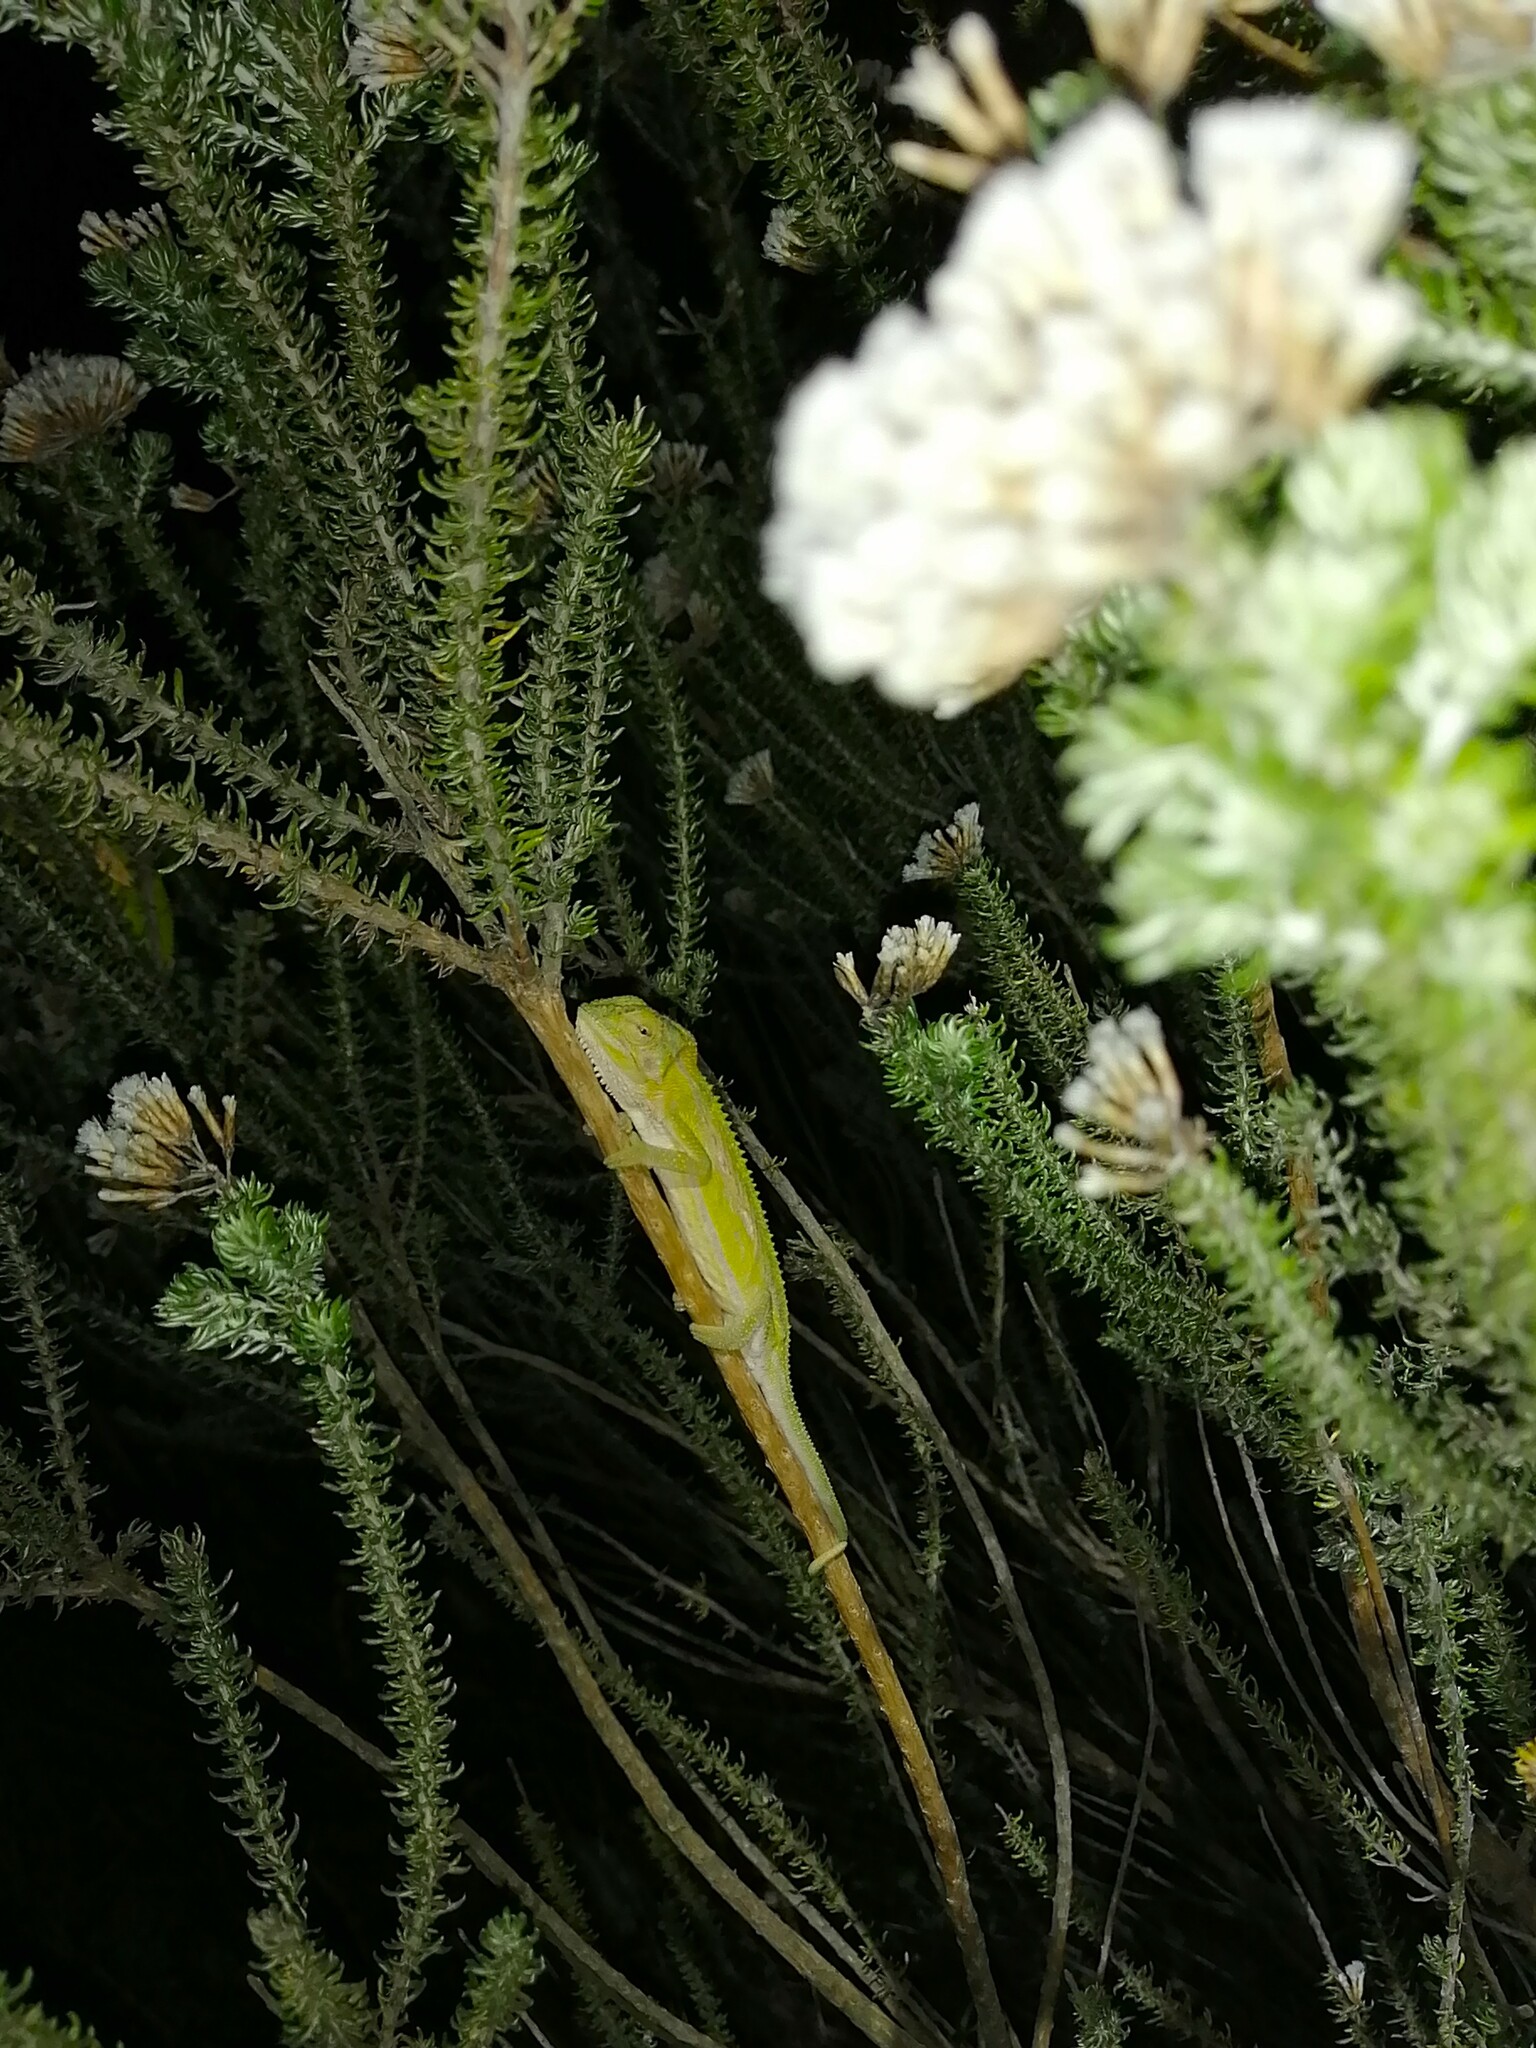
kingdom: Animalia
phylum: Chordata
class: Squamata
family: Chamaeleonidae
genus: Bradypodion
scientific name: Bradypodion pumilum
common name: Cape dwarf chameleon
